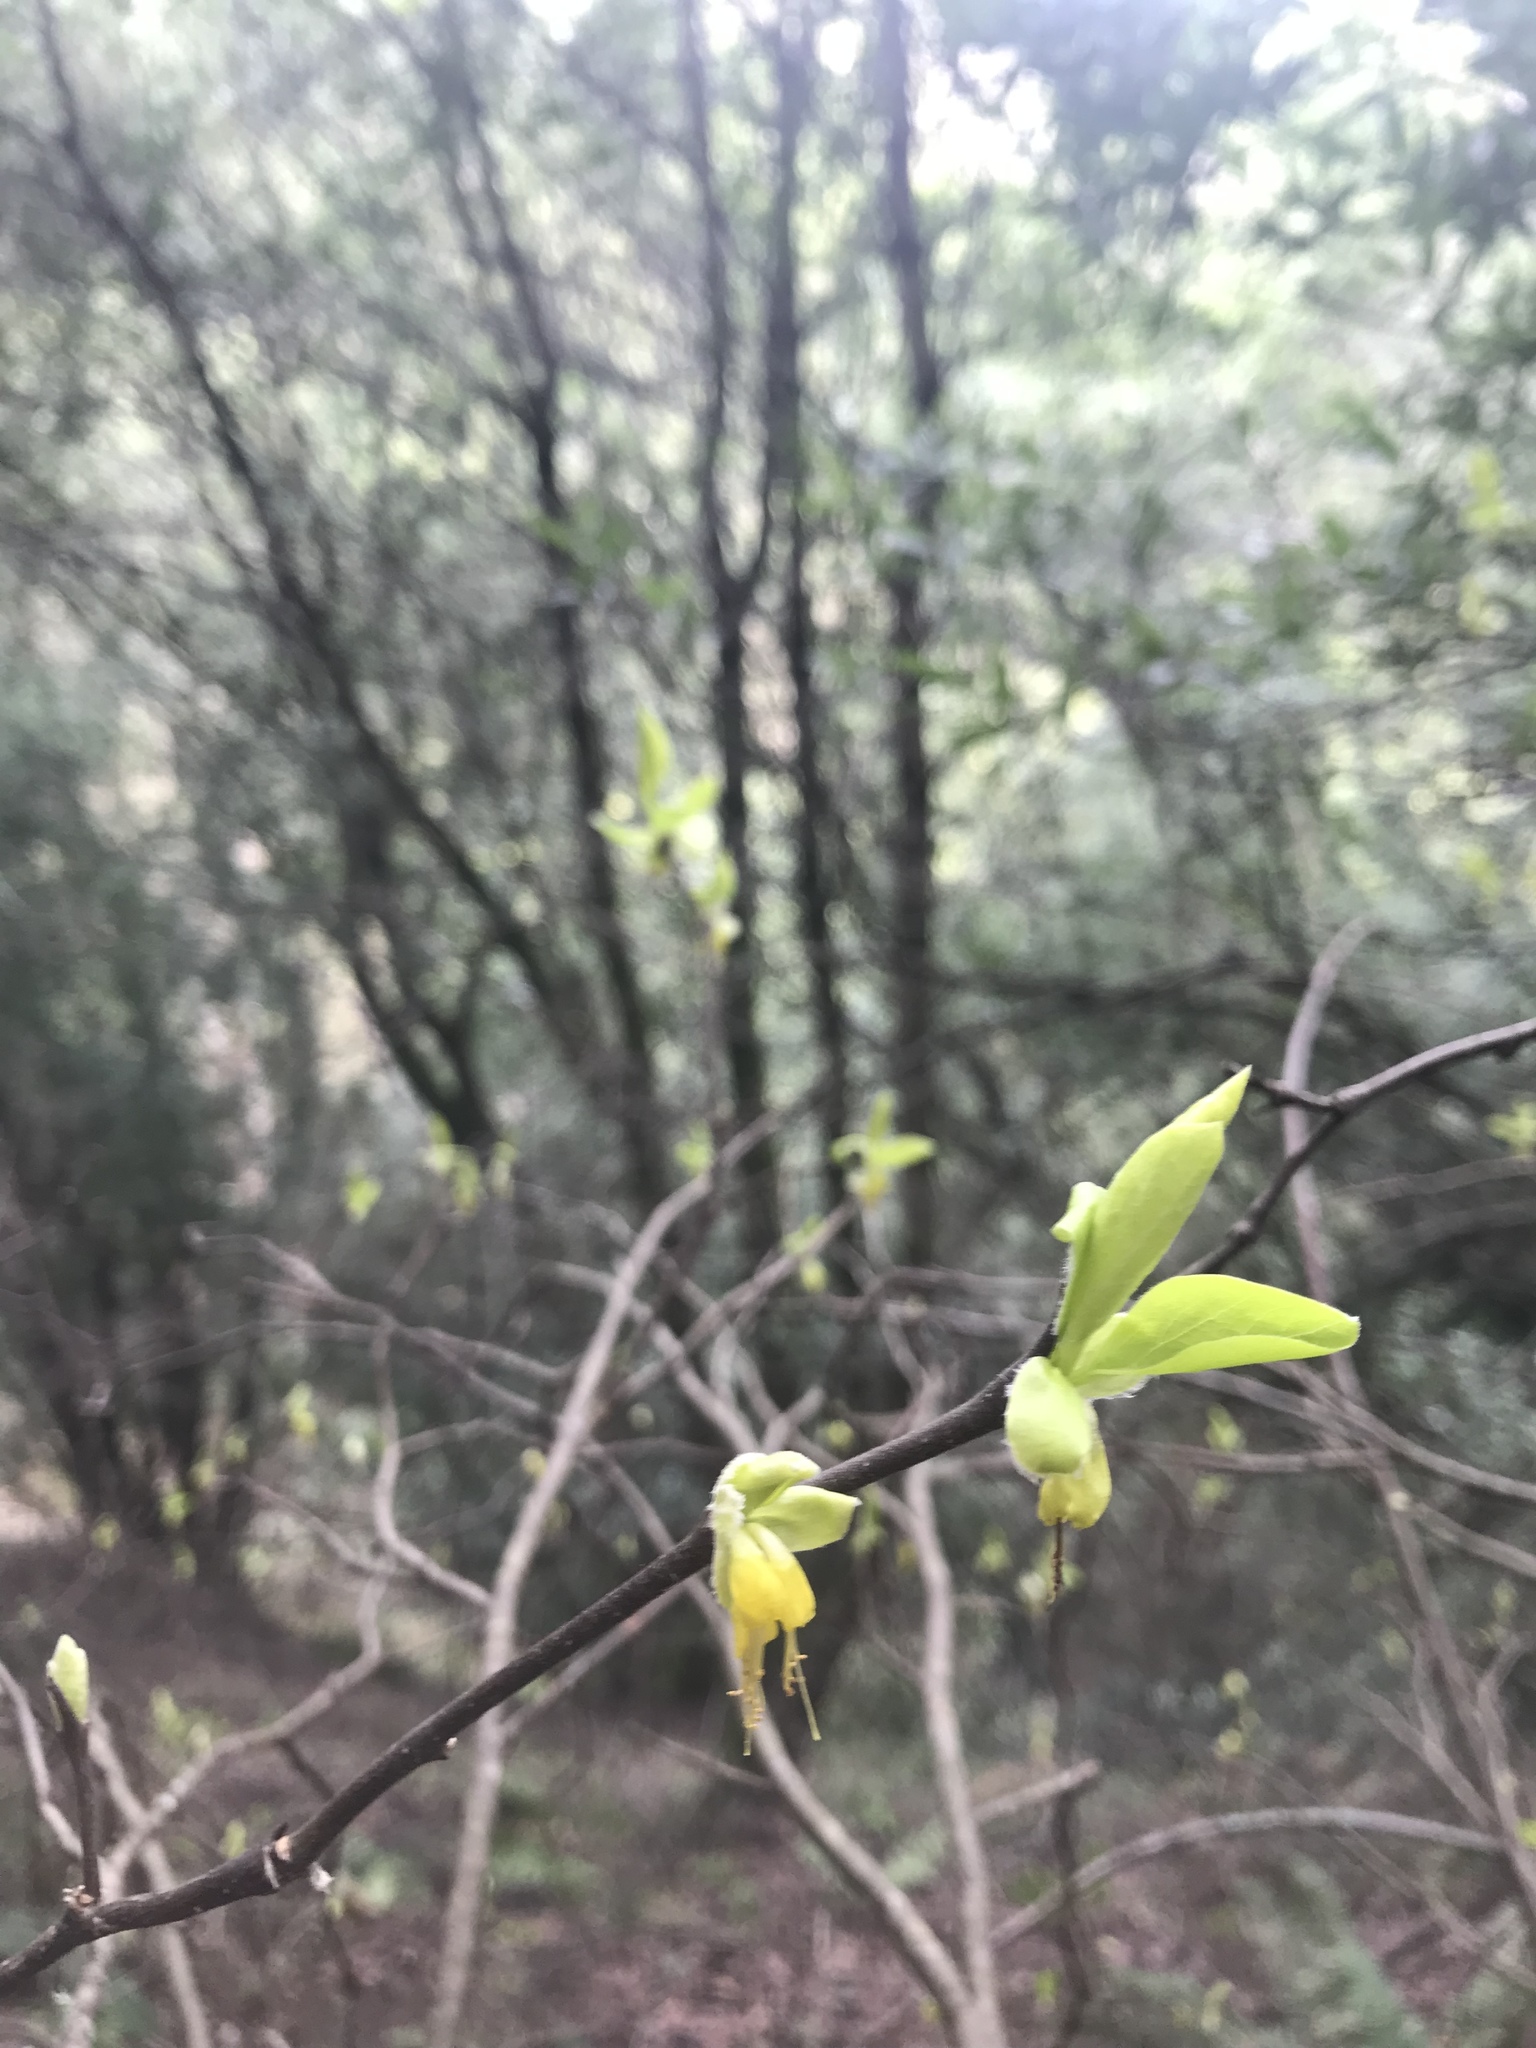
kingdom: Plantae
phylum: Tracheophyta
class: Magnoliopsida
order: Malvales
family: Thymelaeaceae
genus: Dirca
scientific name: Dirca occidentalis
